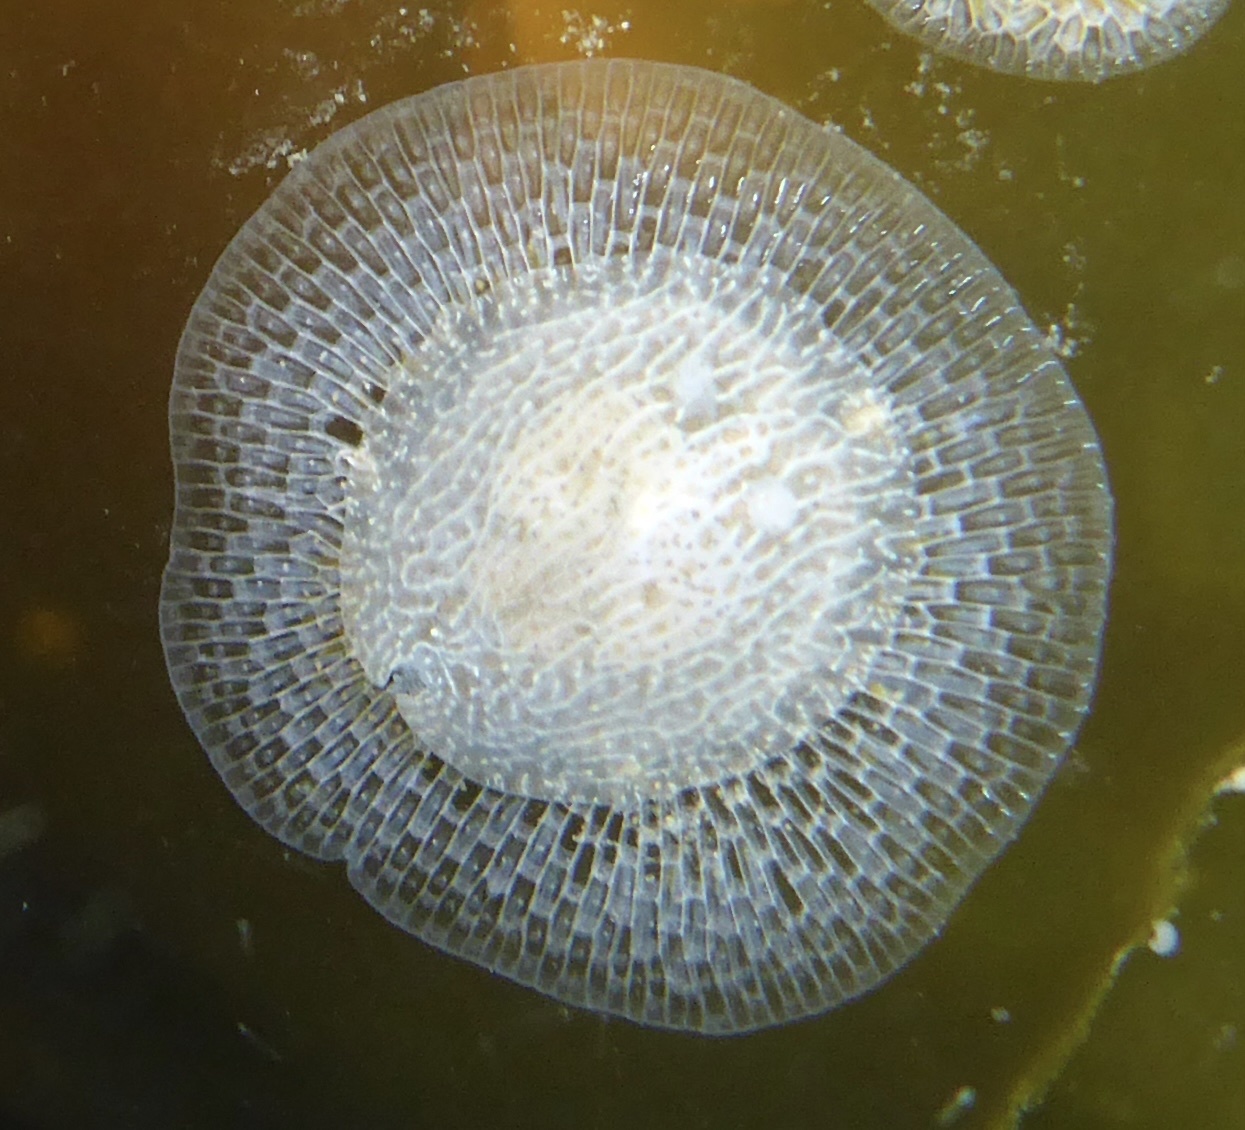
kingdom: Animalia
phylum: Mollusca
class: Gastropoda
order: Nudibranchia
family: Corambidae
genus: Corambe
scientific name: Corambe pacifica
